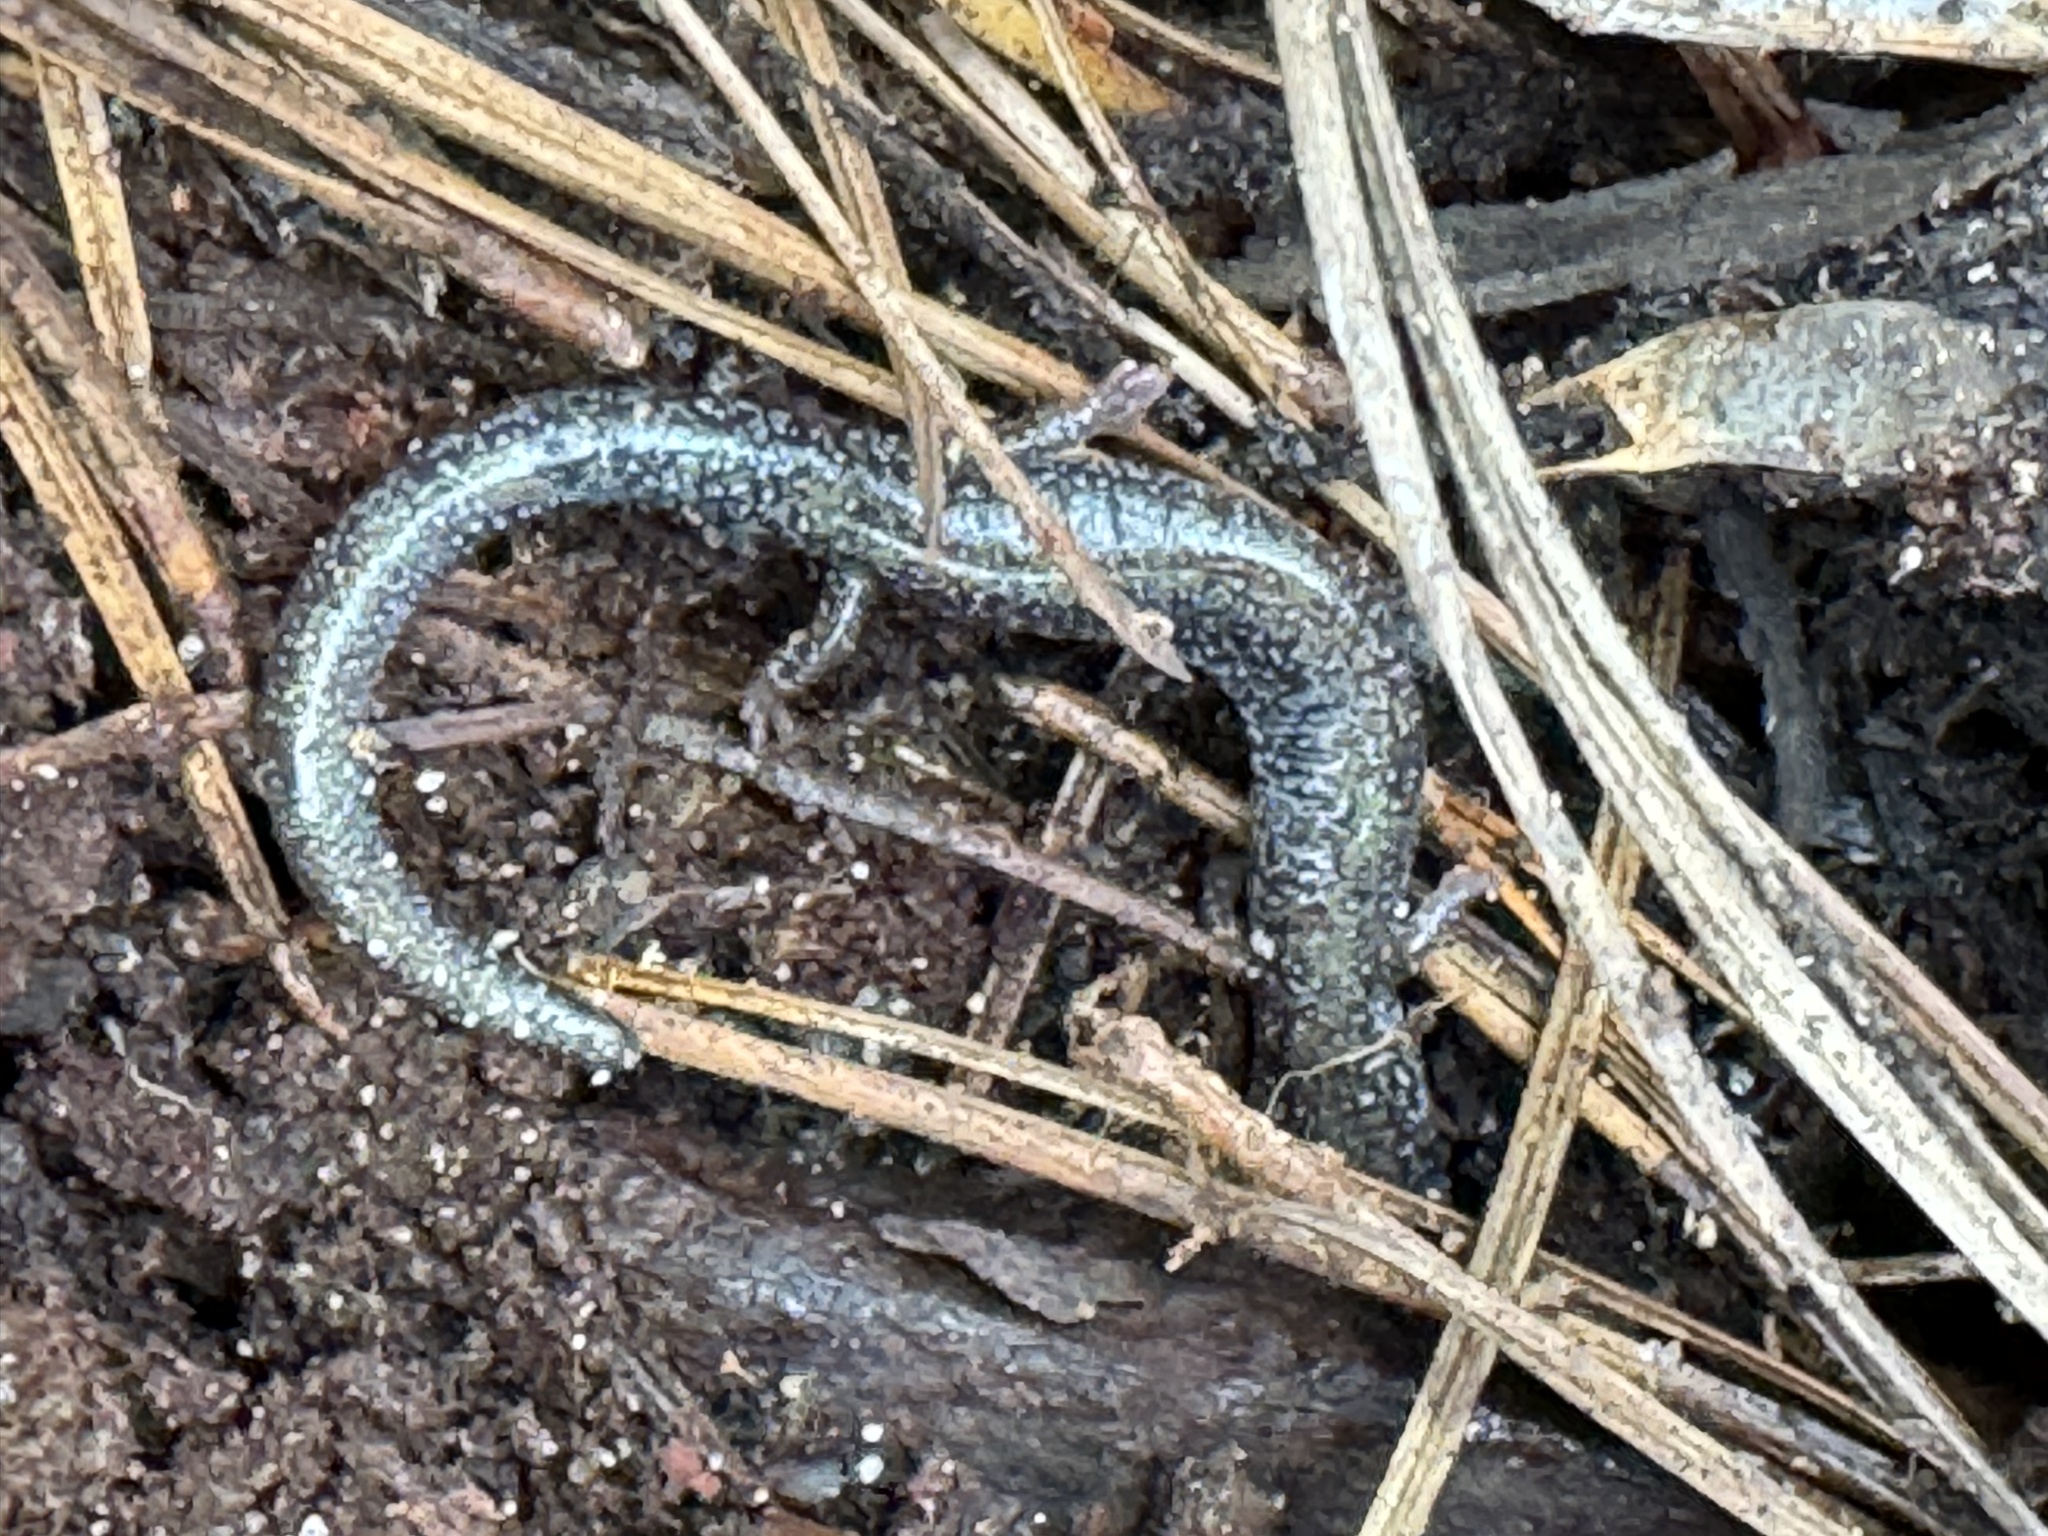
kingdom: Animalia
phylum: Chordata
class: Amphibia
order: Caudata
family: Plethodontidae
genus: Plethodon
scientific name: Plethodon cinereus
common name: Redback salamander
